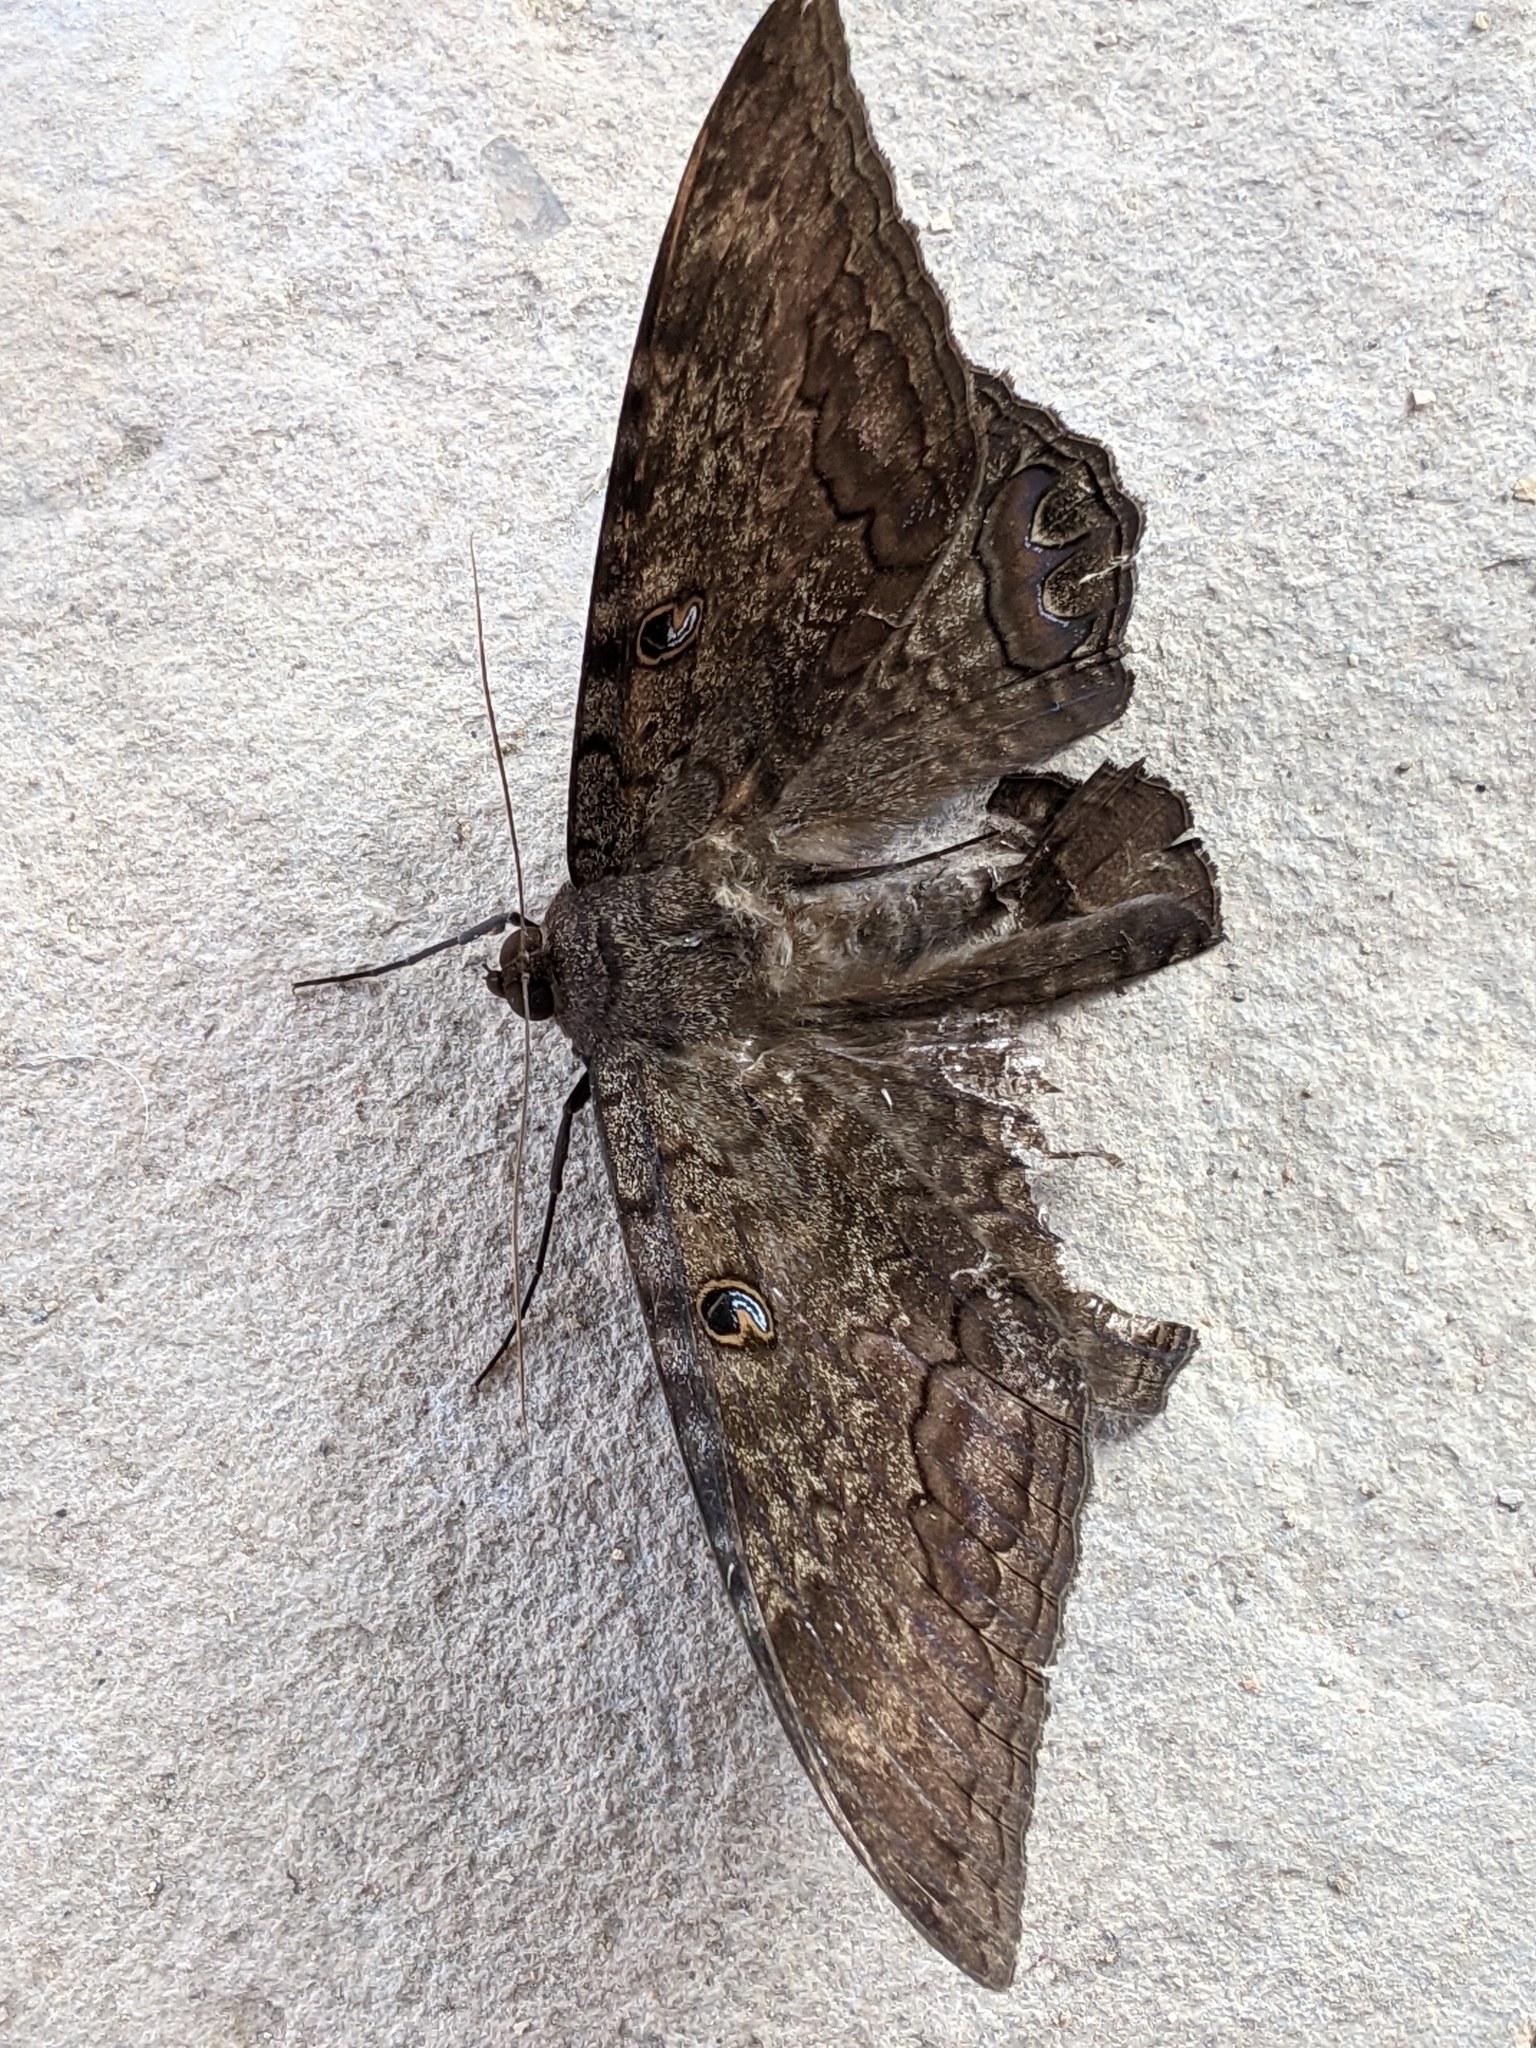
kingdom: Animalia
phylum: Arthropoda
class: Insecta
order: Lepidoptera
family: Erebidae
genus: Ascalapha
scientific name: Ascalapha odorata
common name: Black witch
